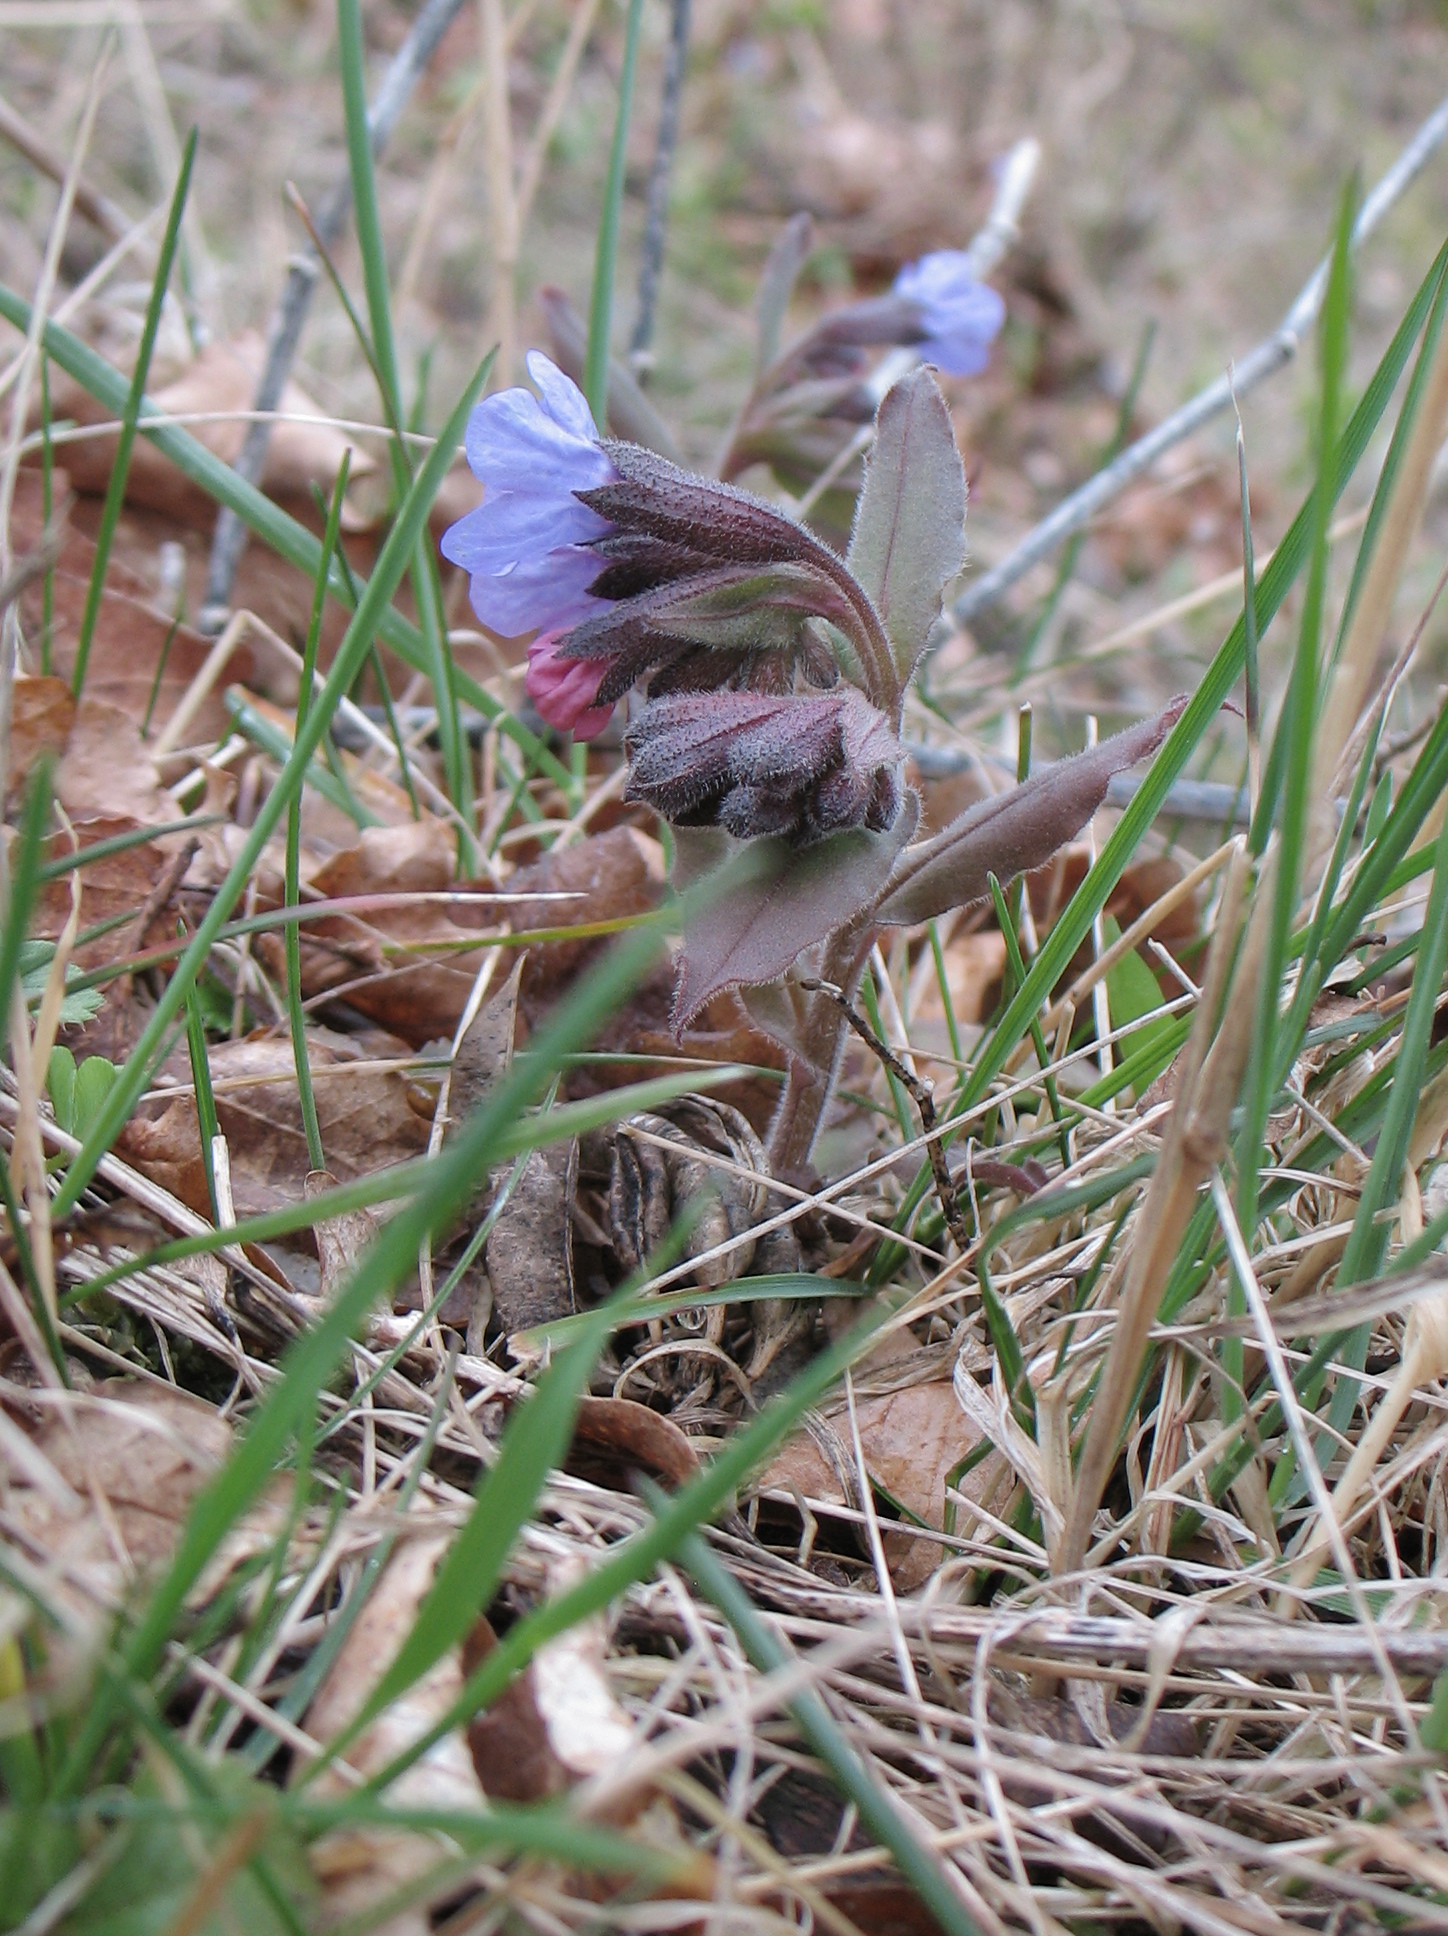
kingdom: Plantae
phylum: Tracheophyta
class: Magnoliopsida
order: Boraginales
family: Boraginaceae
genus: Pulmonaria
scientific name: Pulmonaria obscura
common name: Suffolk lungwort
